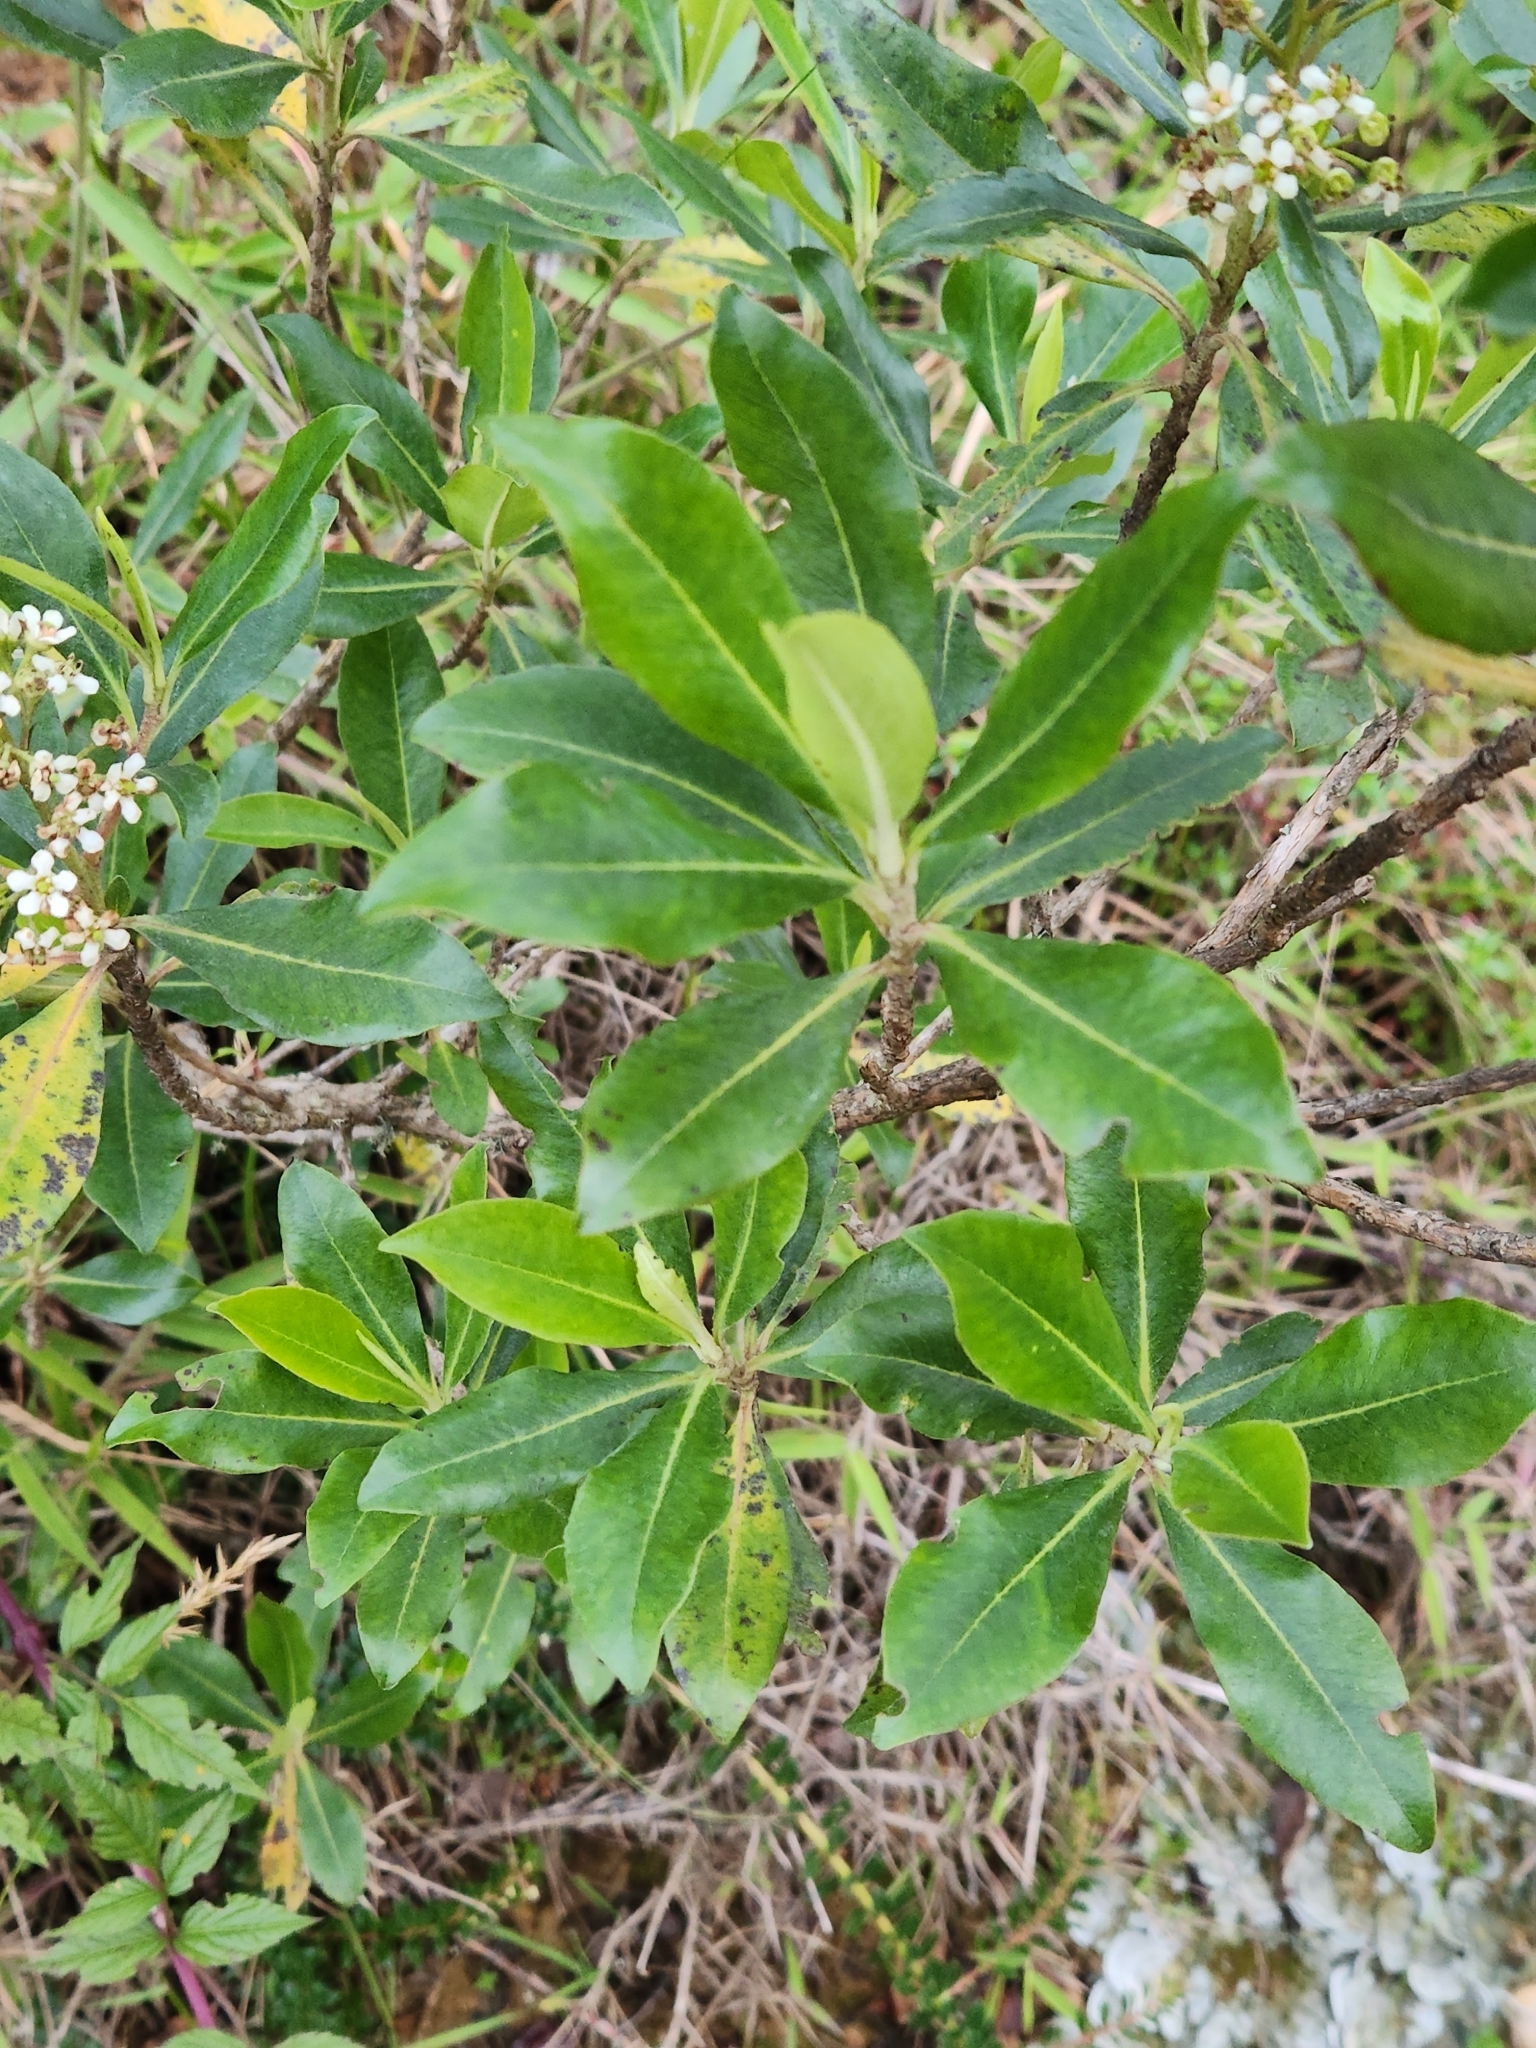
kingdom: Plantae
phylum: Tracheophyta
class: Magnoliopsida
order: Escalloniales
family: Escalloniaceae
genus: Escallonia
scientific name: Escallonia paniculata
